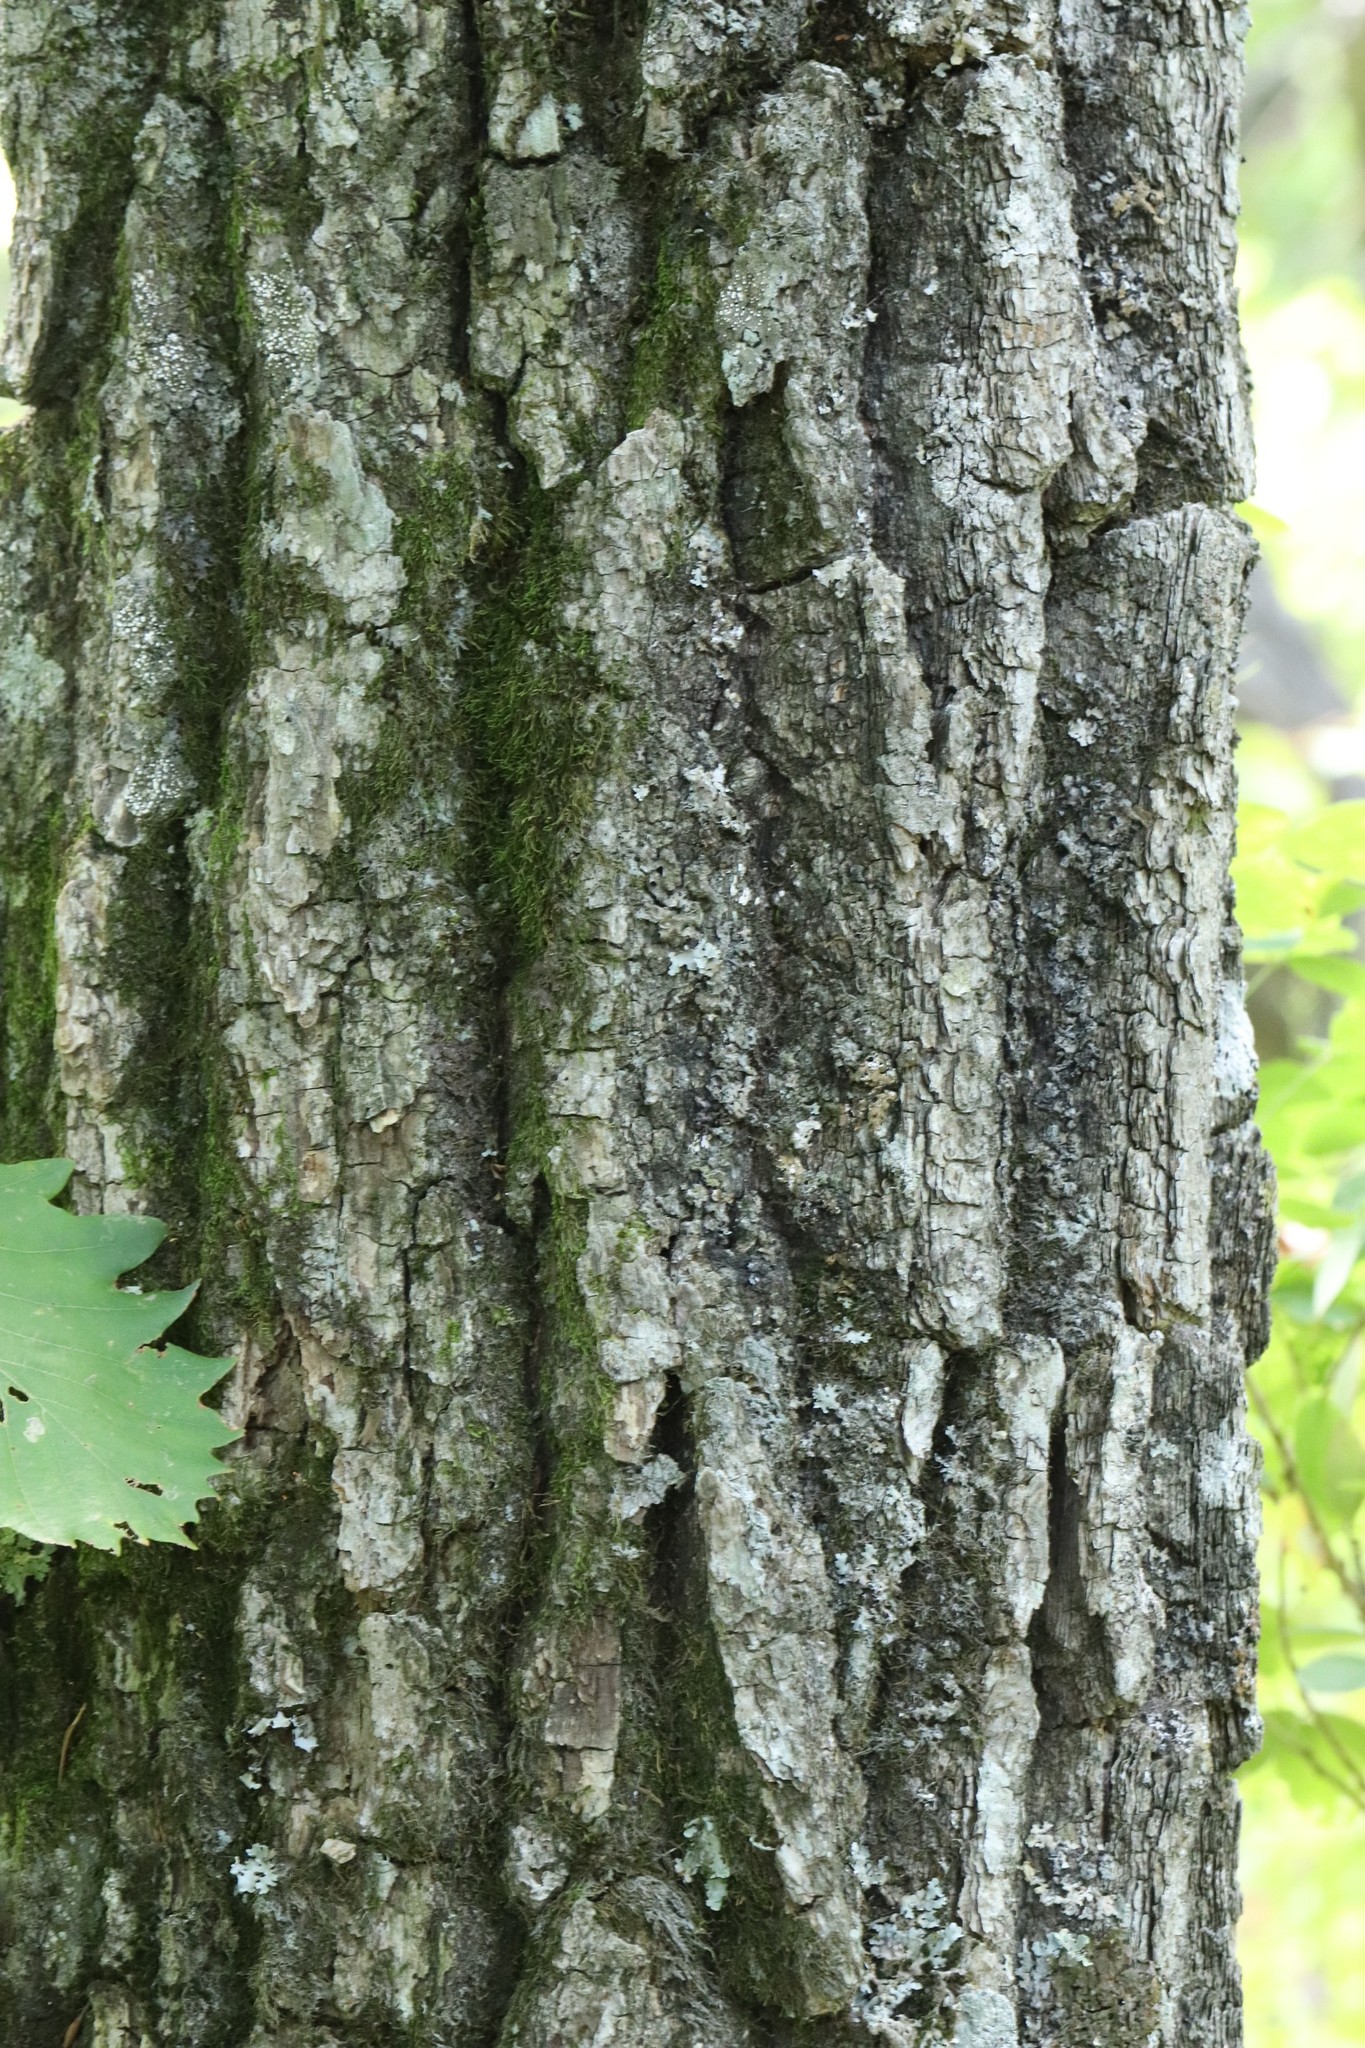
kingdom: Plantae
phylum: Tracheophyta
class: Magnoliopsida
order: Fagales
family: Fagaceae
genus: Quercus
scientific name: Quercus mongolica
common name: Mongolian oak
